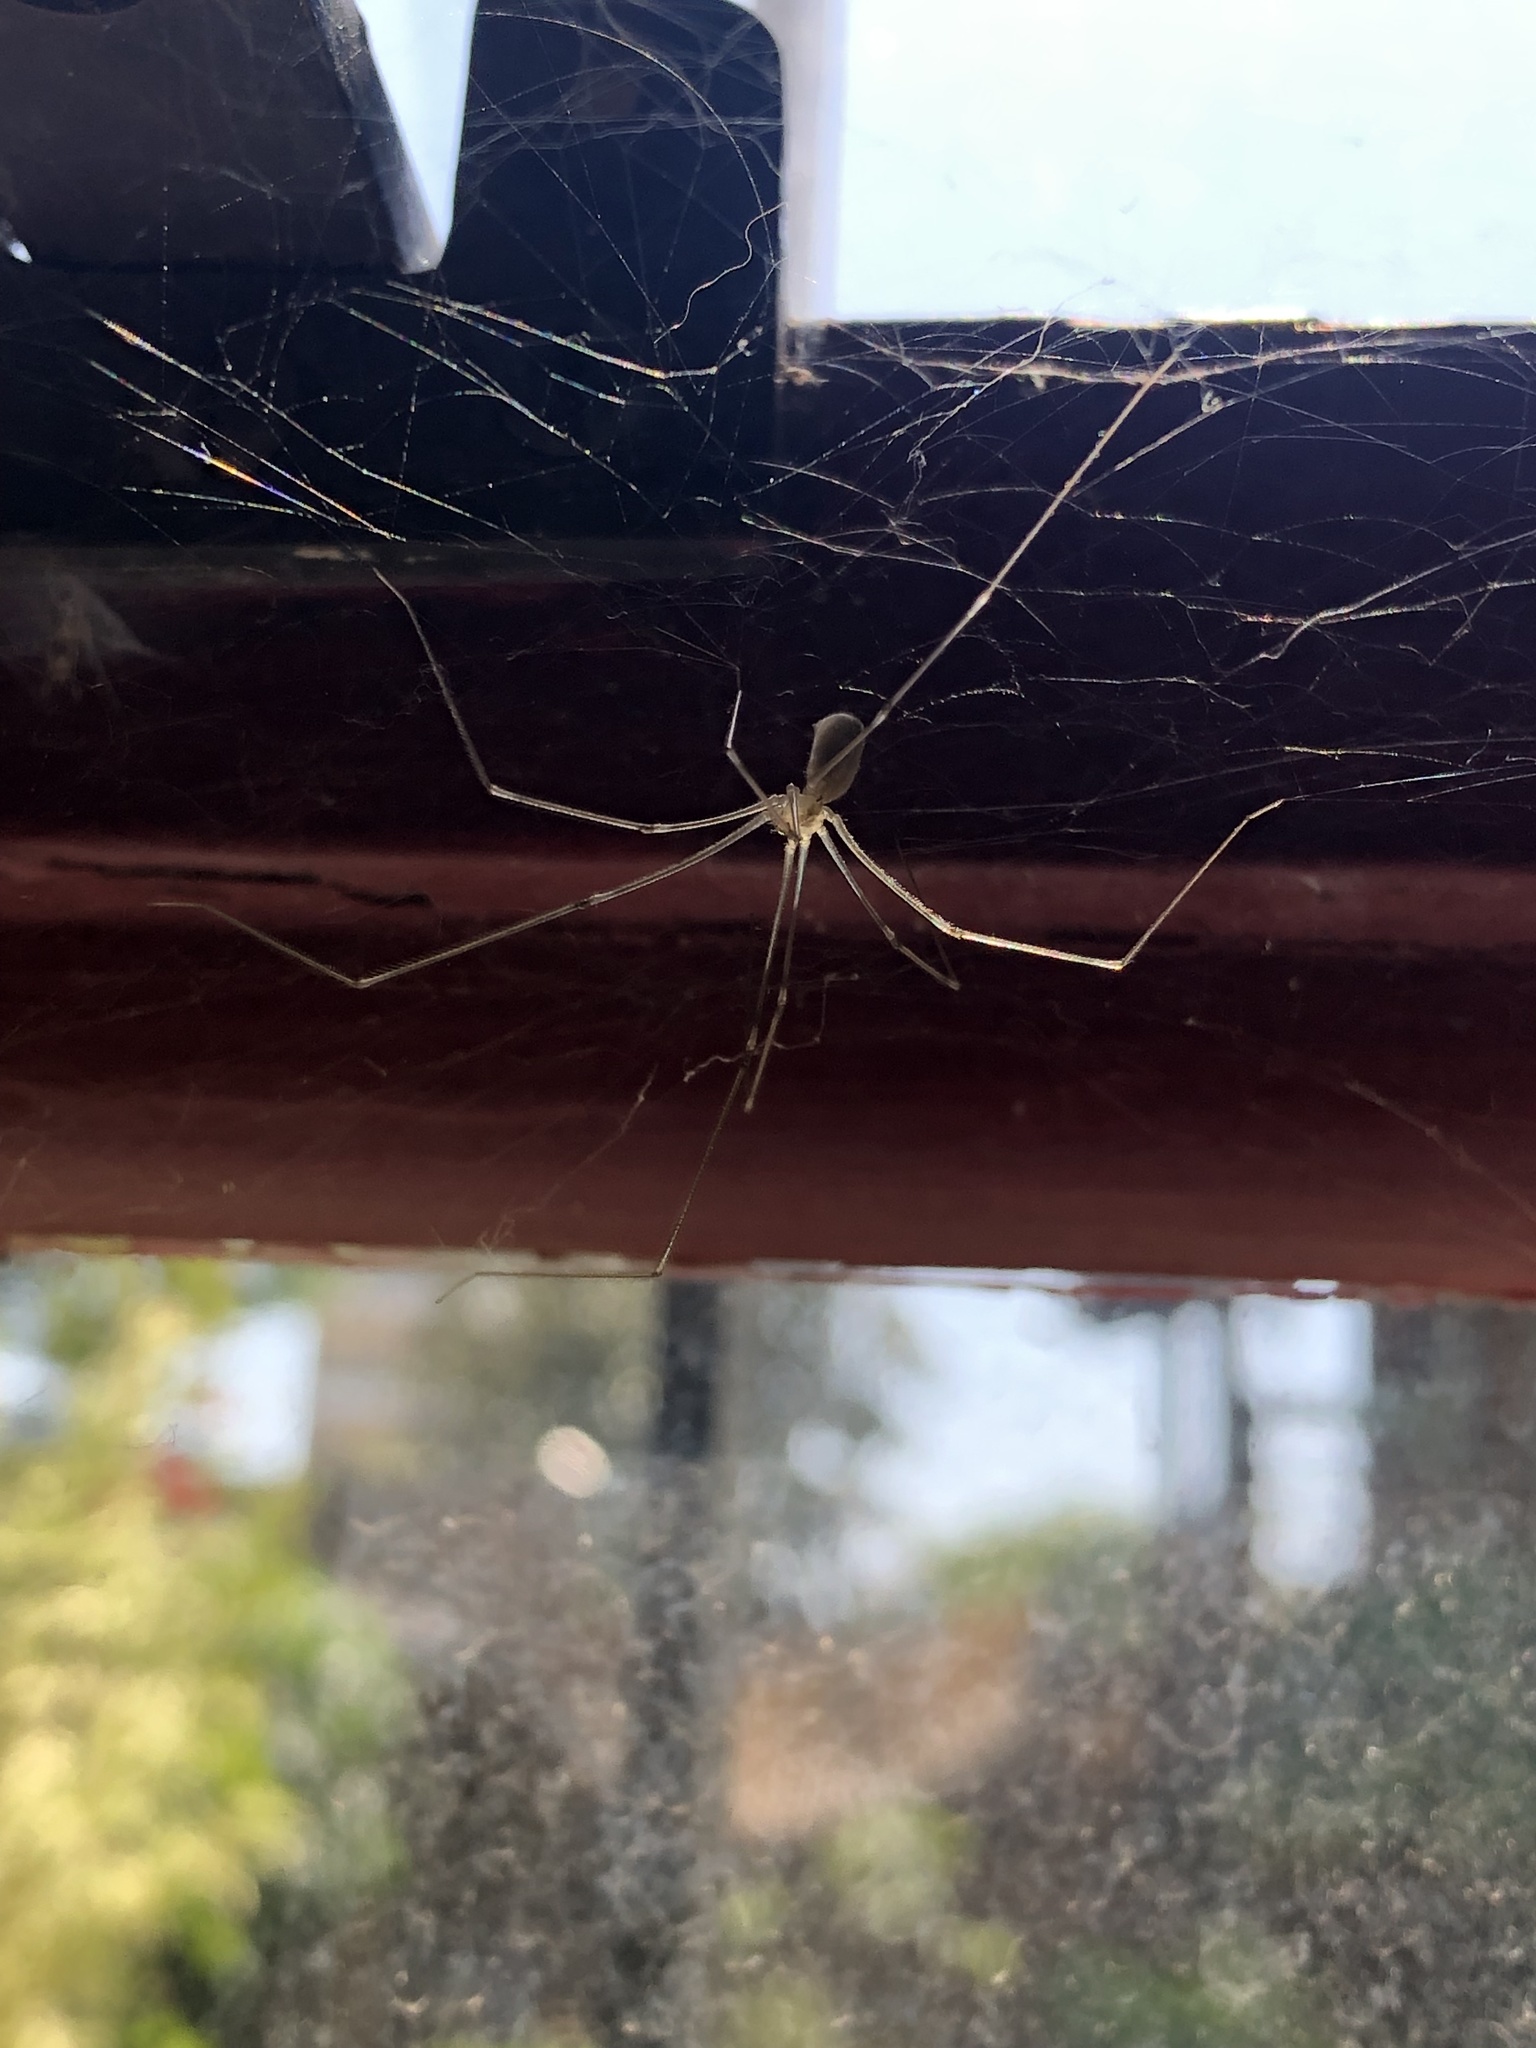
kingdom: Animalia
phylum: Arthropoda
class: Arachnida
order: Araneae
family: Pholcidae
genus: Pholcus
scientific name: Pholcus phalangioides
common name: Longbodied cellar spider
